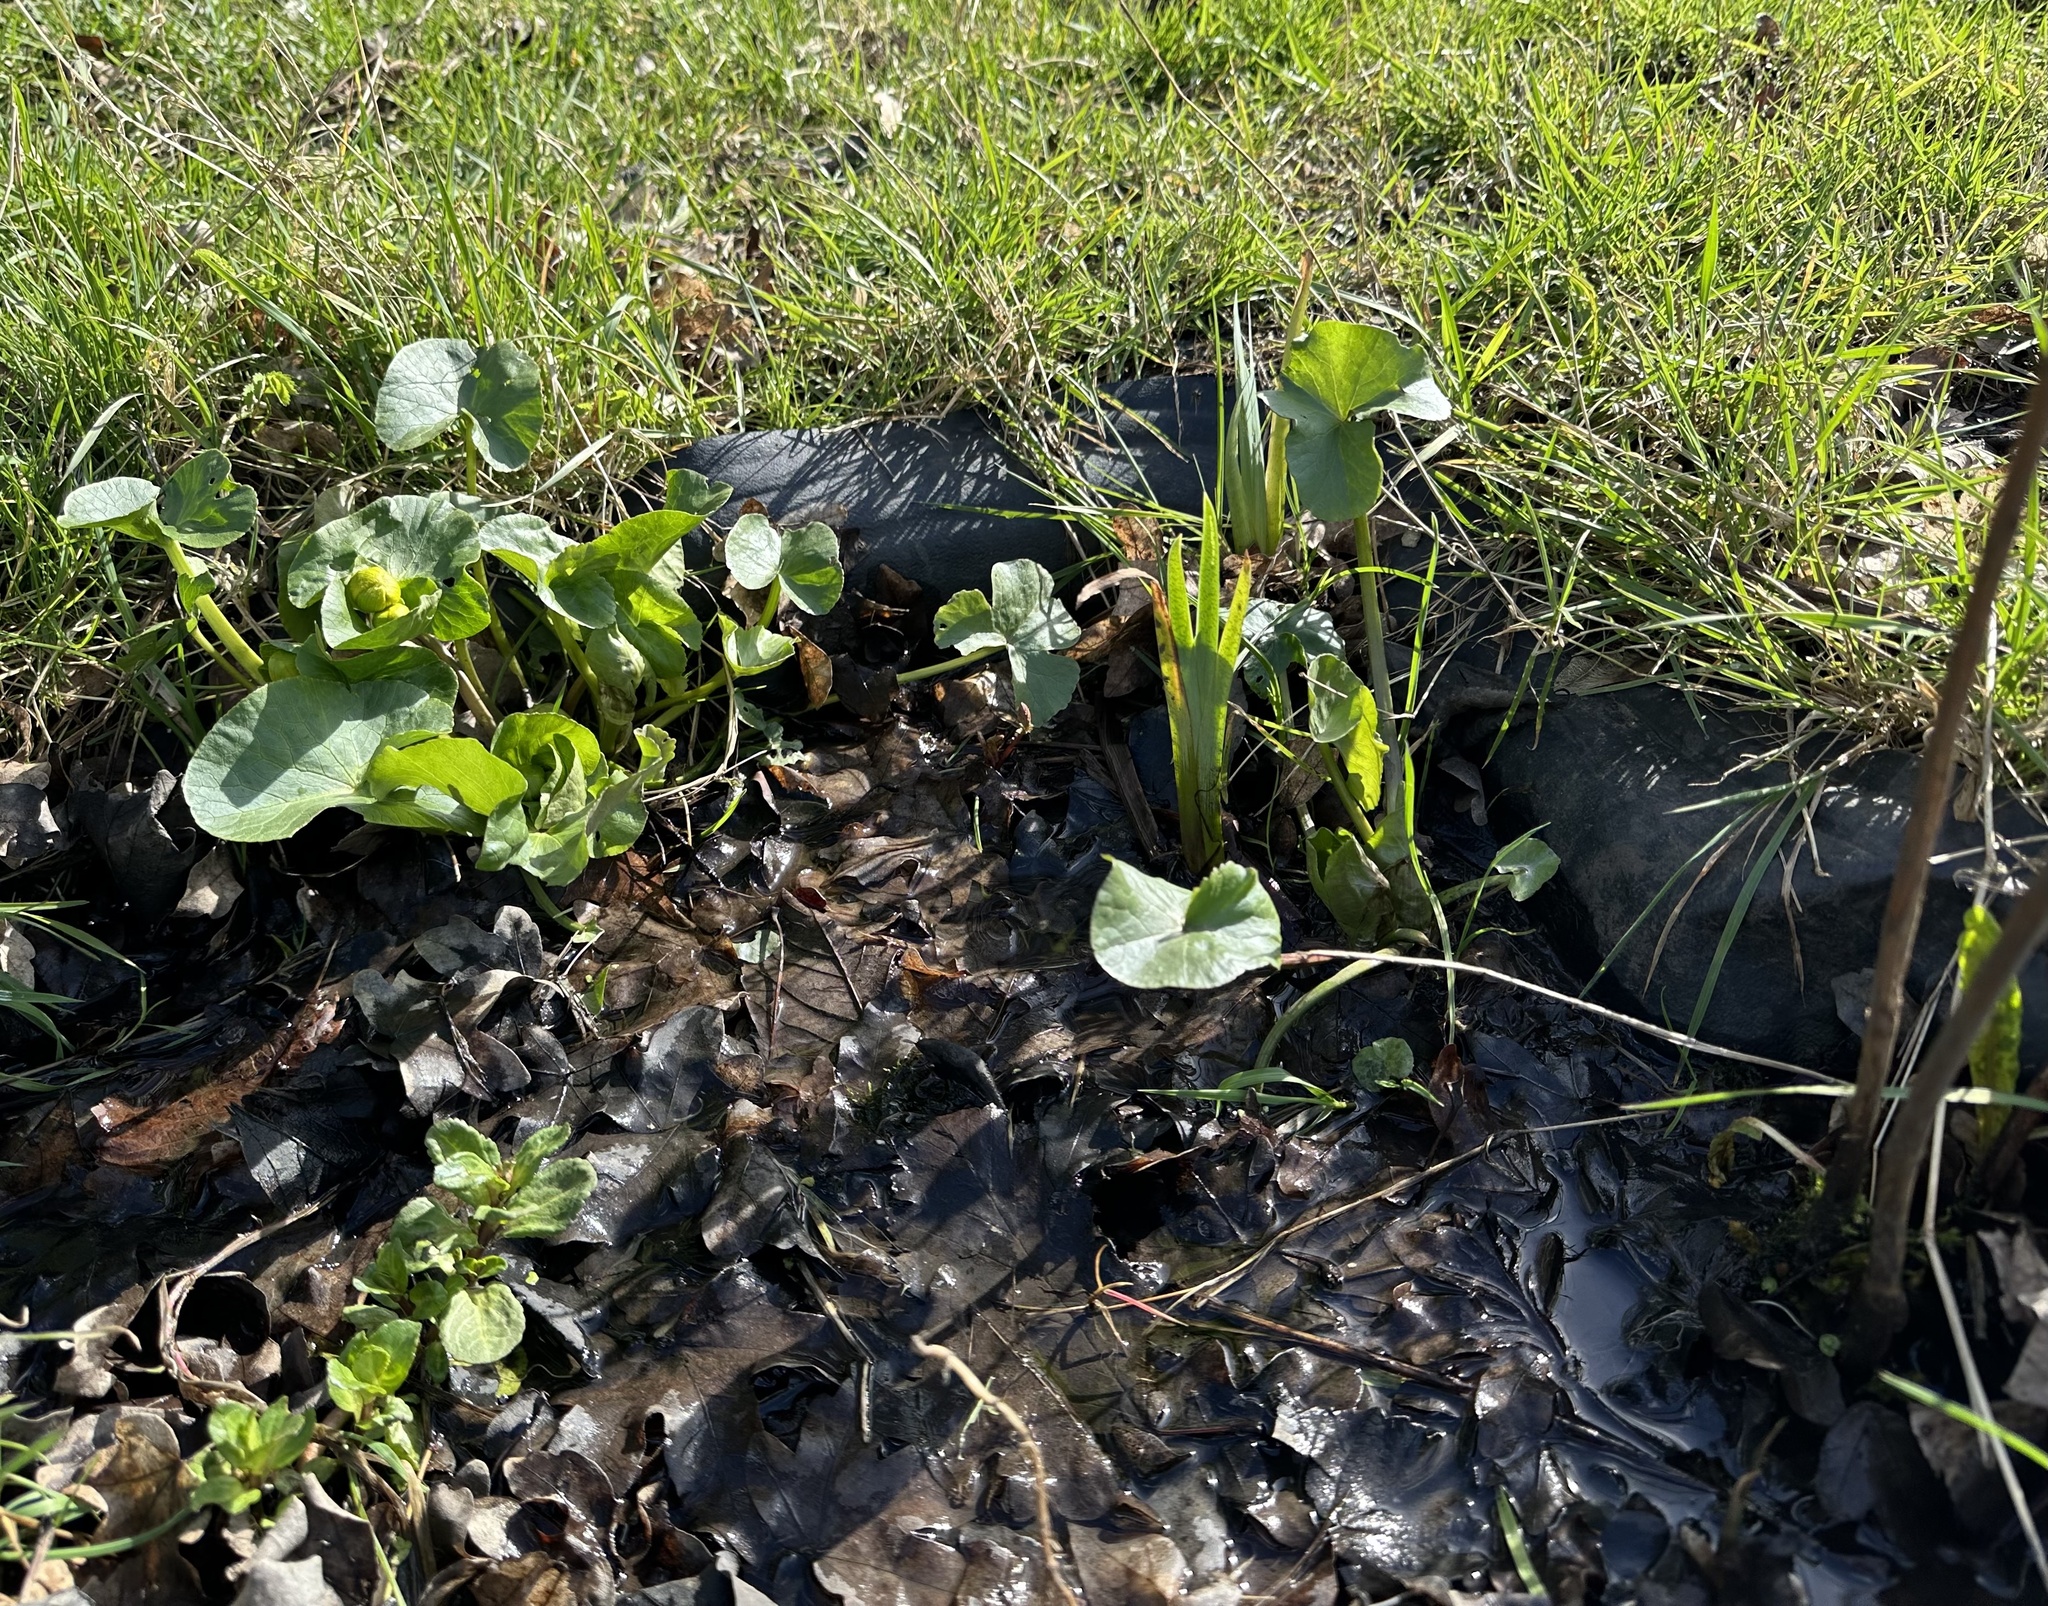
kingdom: Plantae
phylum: Tracheophyta
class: Magnoliopsida
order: Ranunculales
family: Ranunculaceae
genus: Caltha
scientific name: Caltha palustris
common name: Marsh marigold
